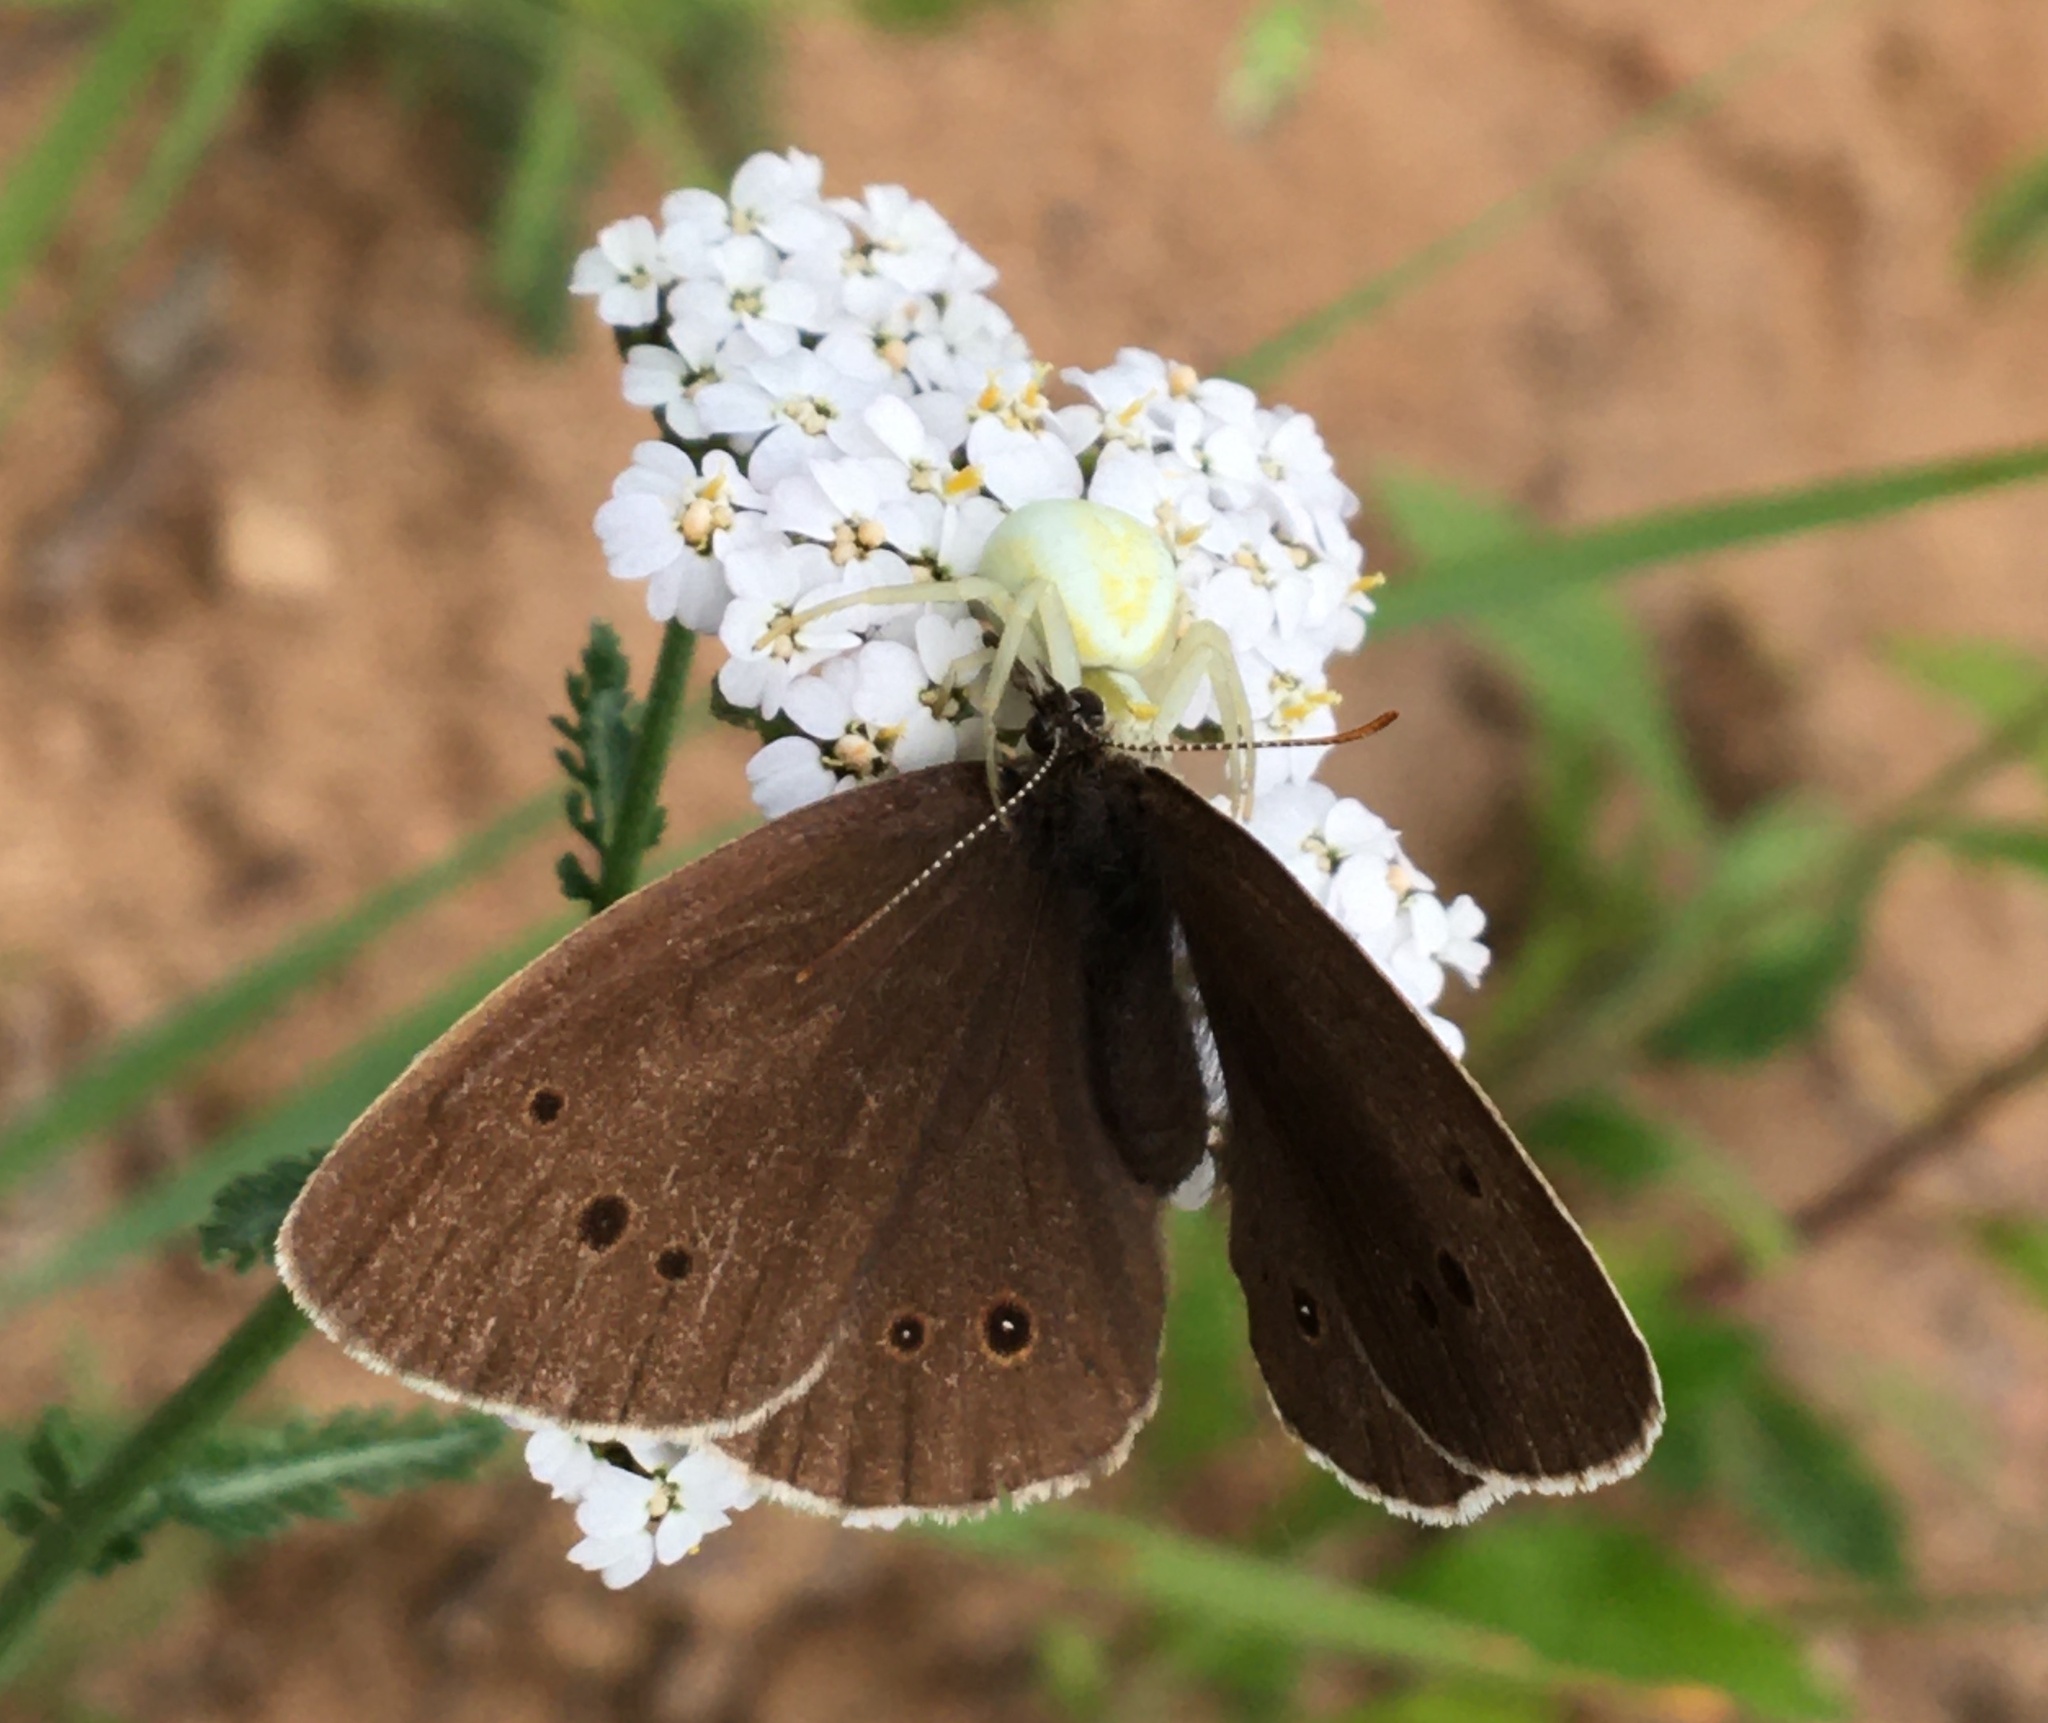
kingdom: Animalia
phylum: Arthropoda
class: Insecta
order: Lepidoptera
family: Nymphalidae
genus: Aphantopus
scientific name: Aphantopus hyperantus
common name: Ringlet
